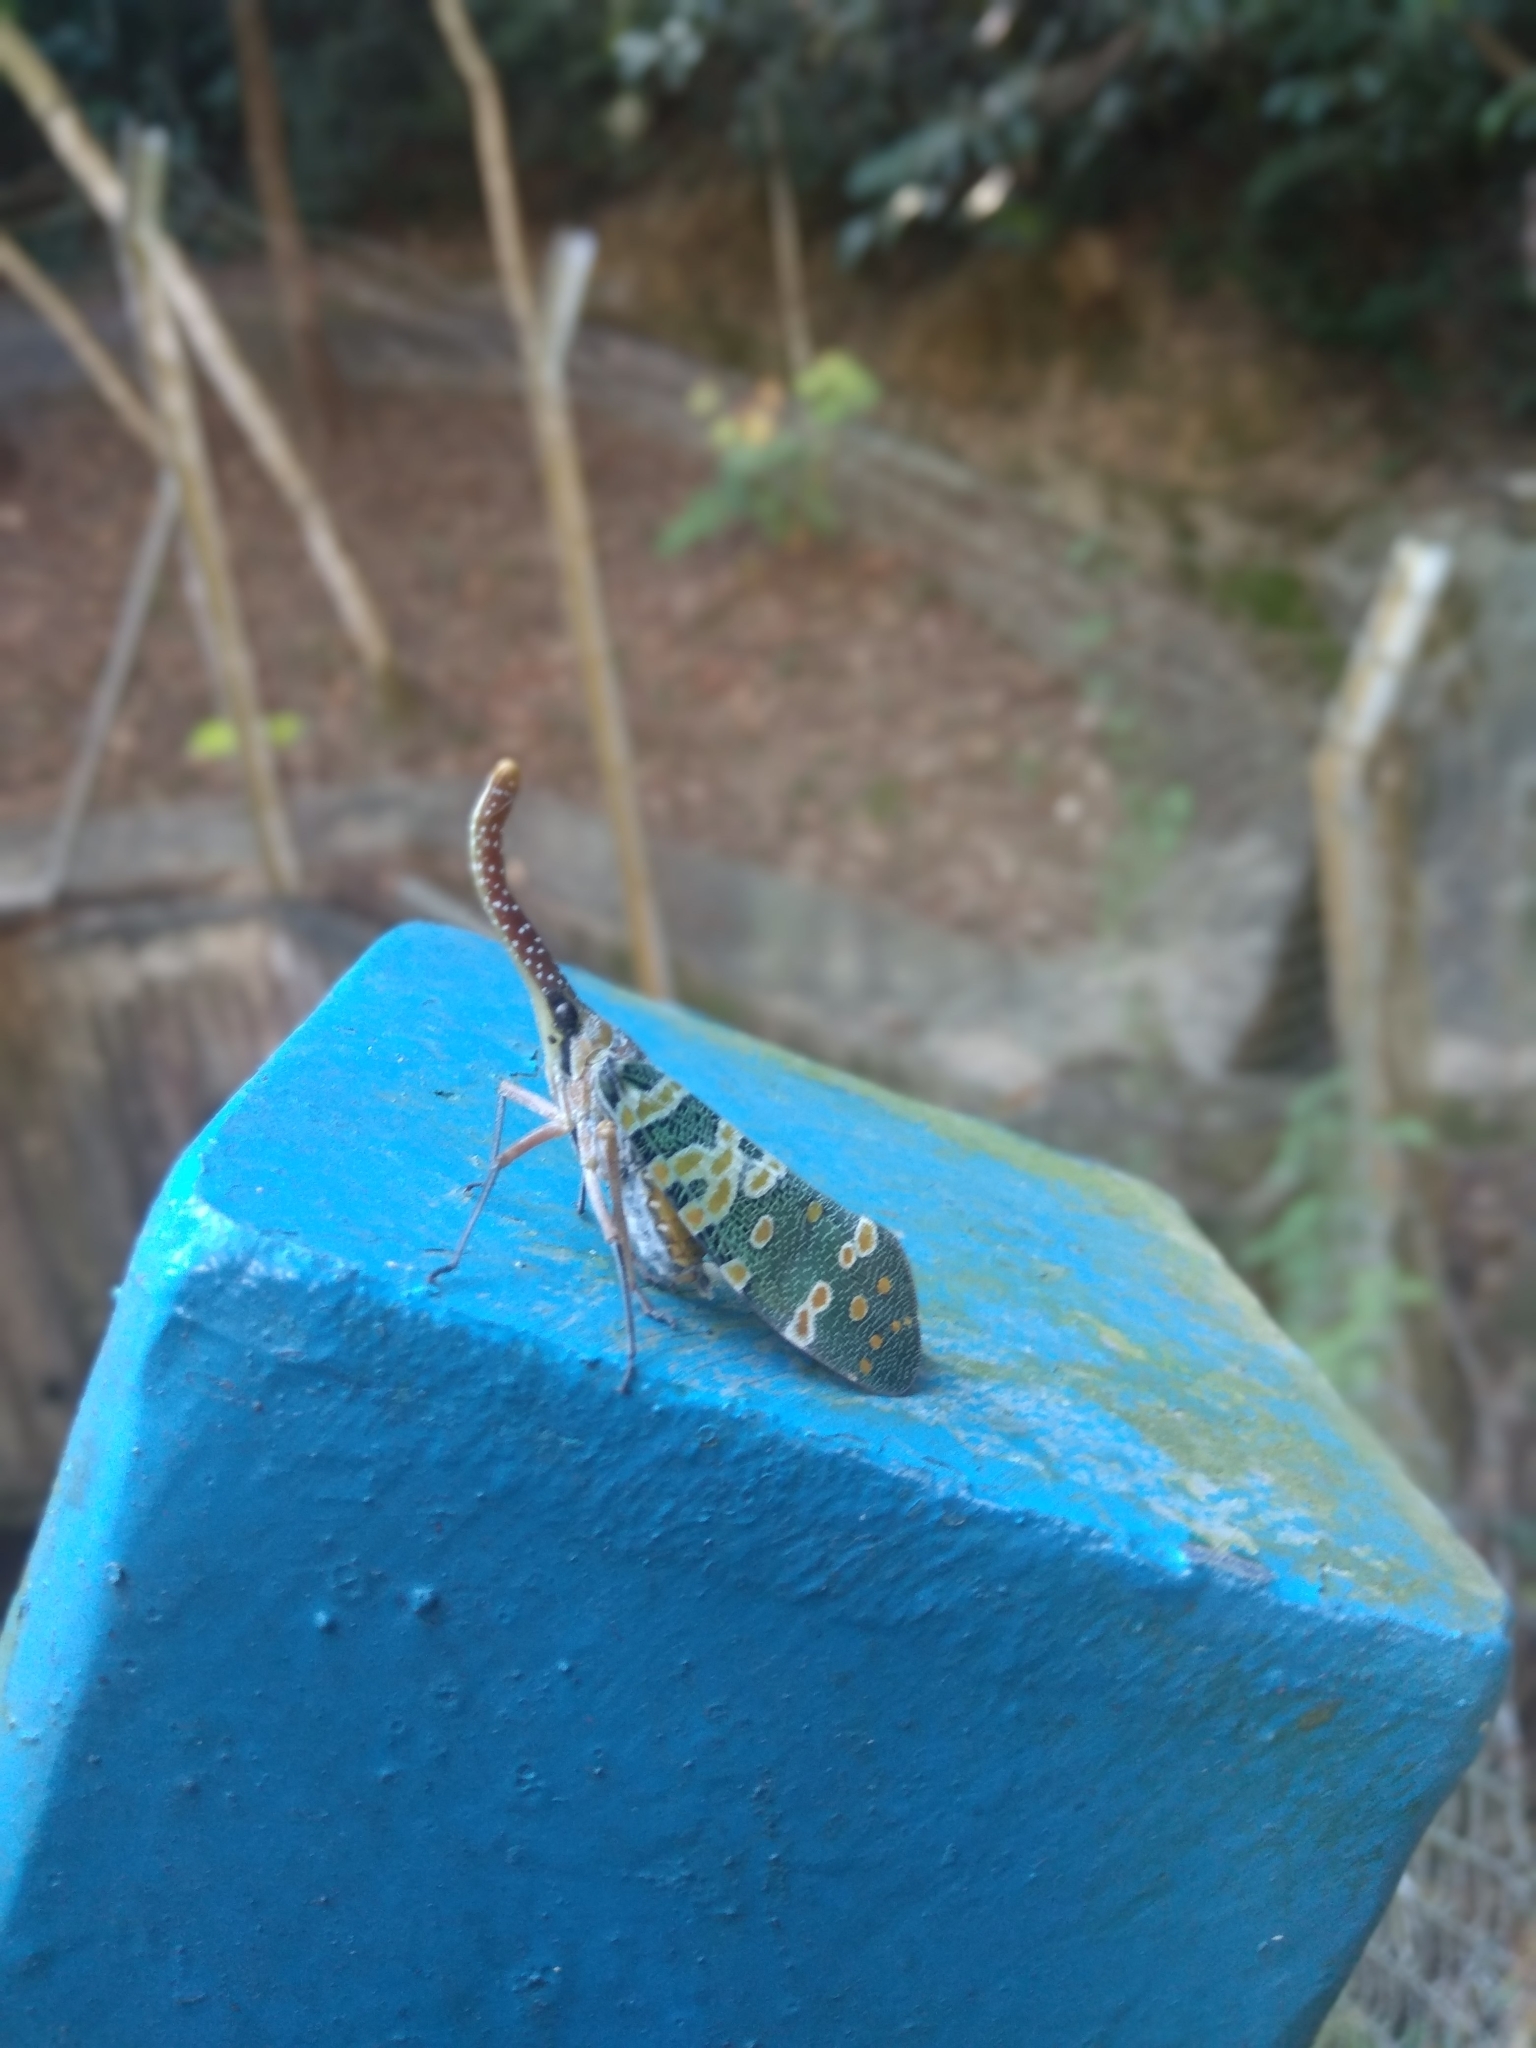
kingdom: Animalia
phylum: Arthropoda
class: Insecta
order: Hemiptera
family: Fulgoridae
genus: Pyrops
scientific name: Pyrops candelaria
